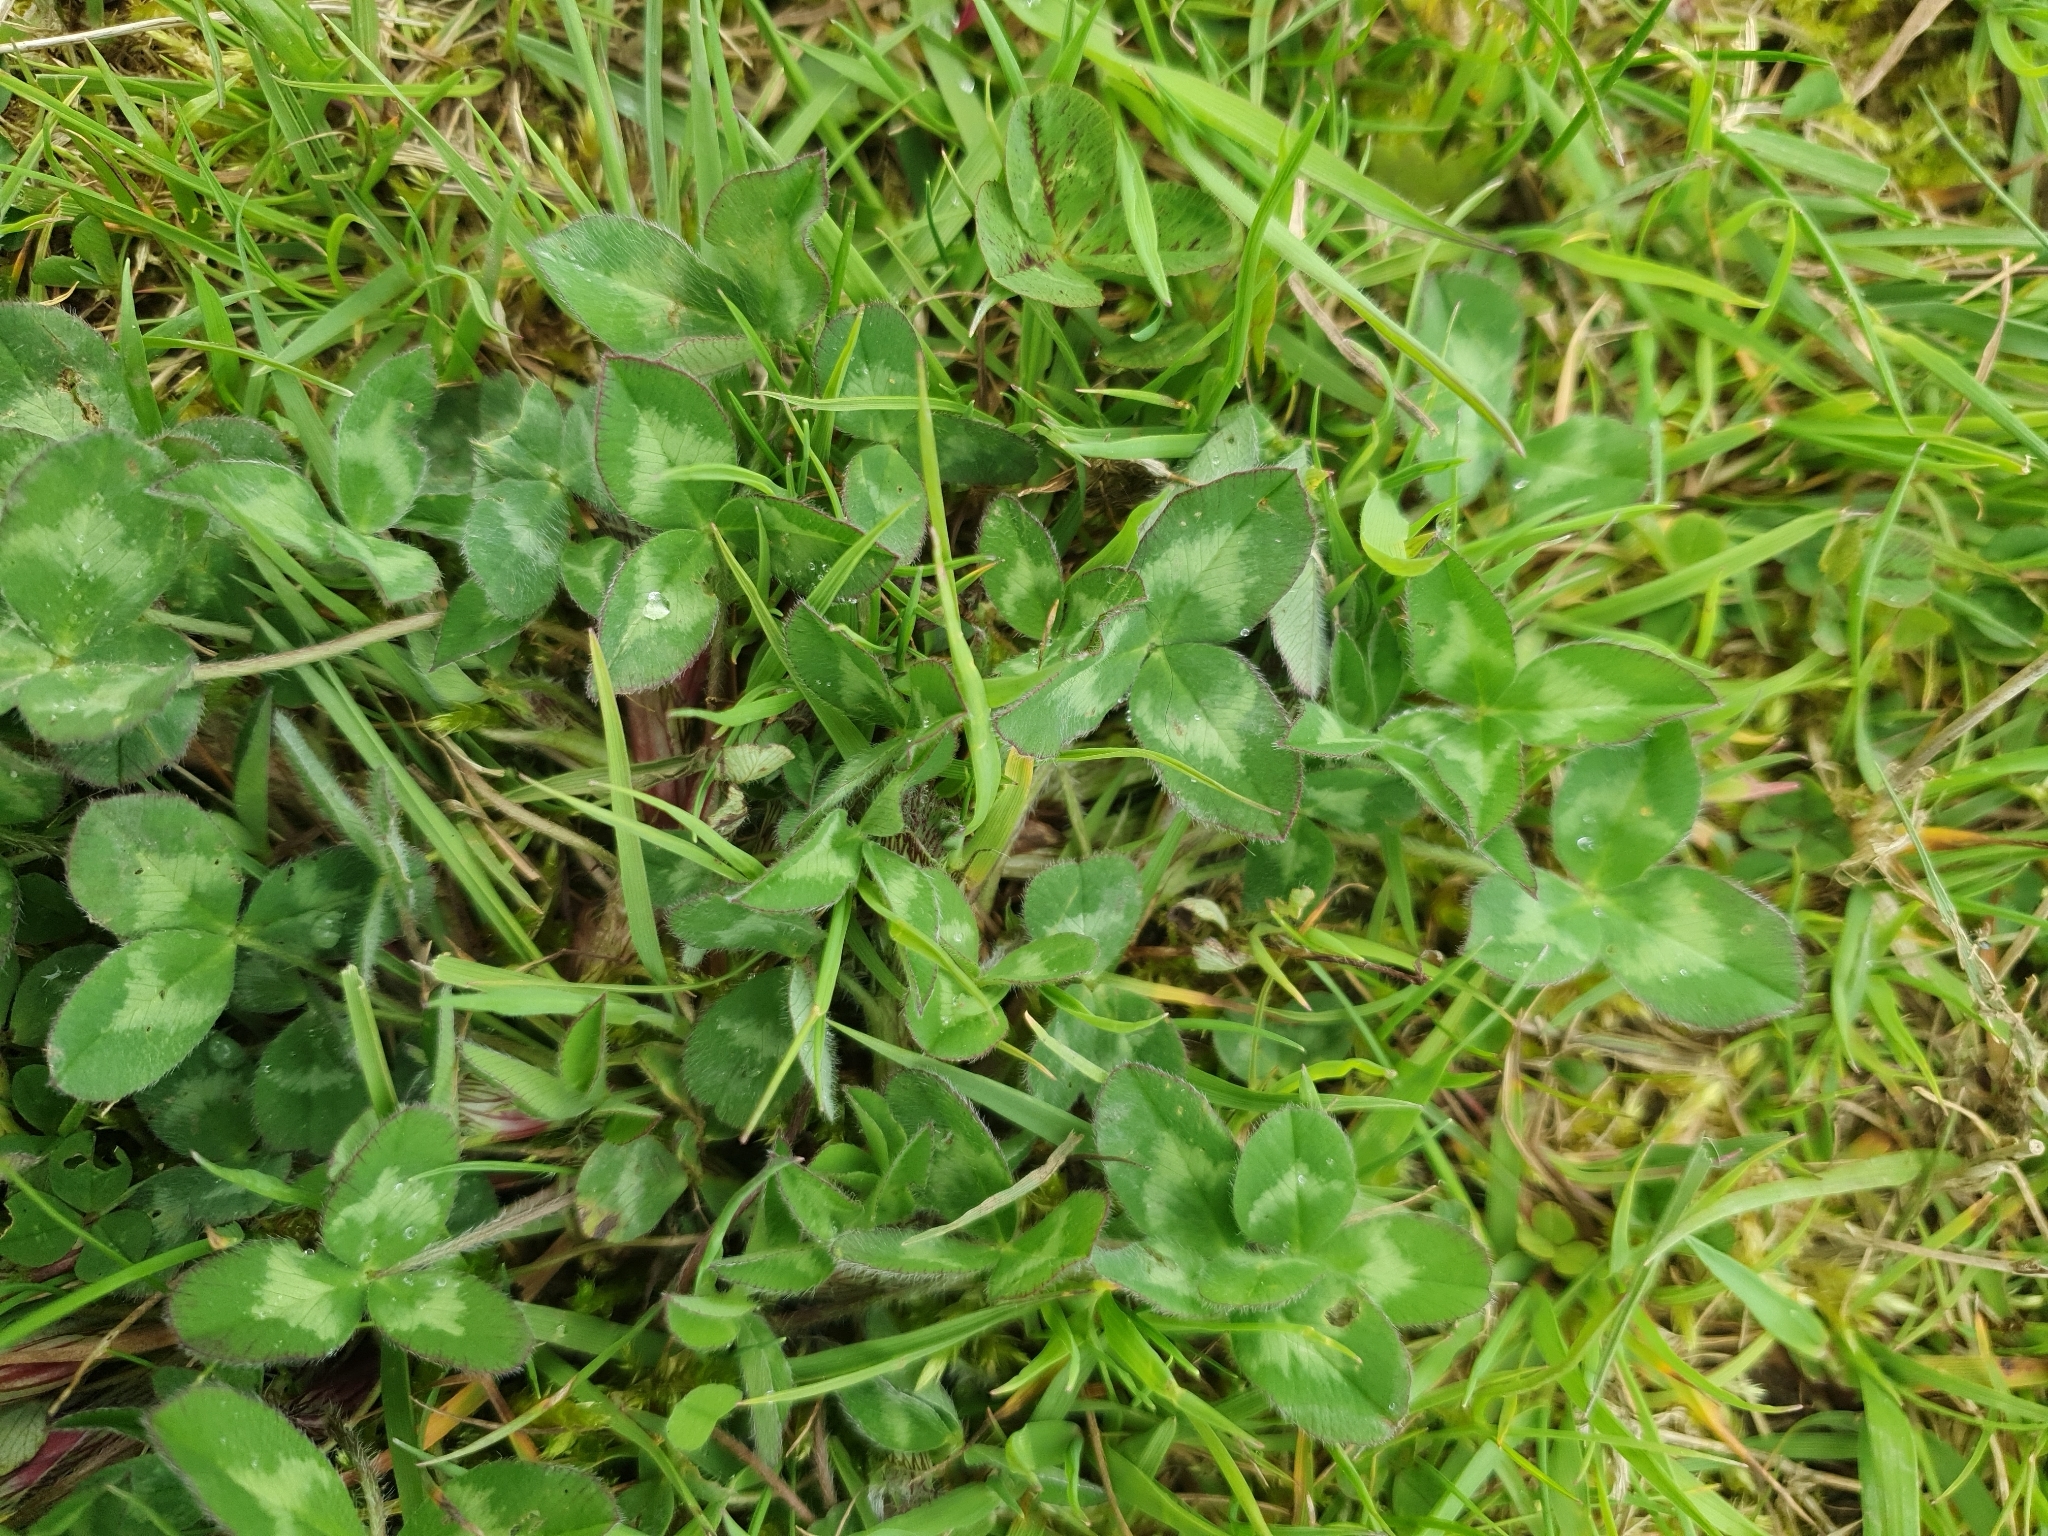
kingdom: Plantae
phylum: Tracheophyta
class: Magnoliopsida
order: Fabales
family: Fabaceae
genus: Trifolium
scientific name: Trifolium pratense
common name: Red clover
